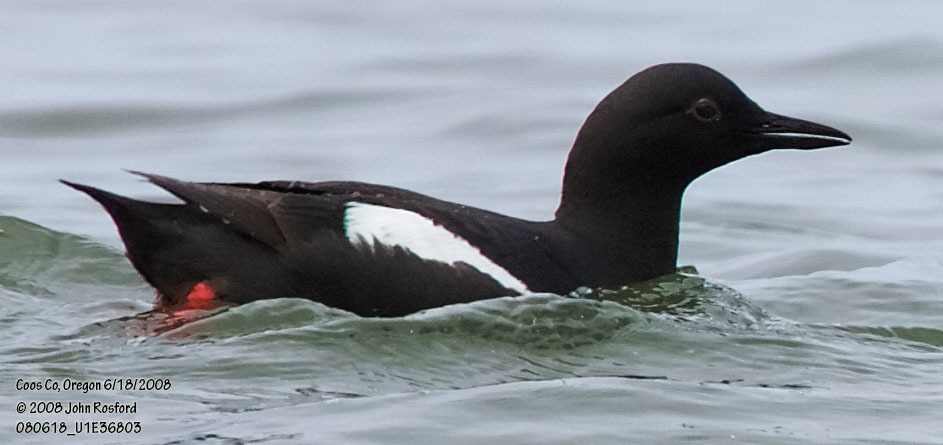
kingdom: Animalia
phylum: Chordata
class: Aves
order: Charadriiformes
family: Alcidae
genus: Cepphus
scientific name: Cepphus columba
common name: Pigeon guillemot
